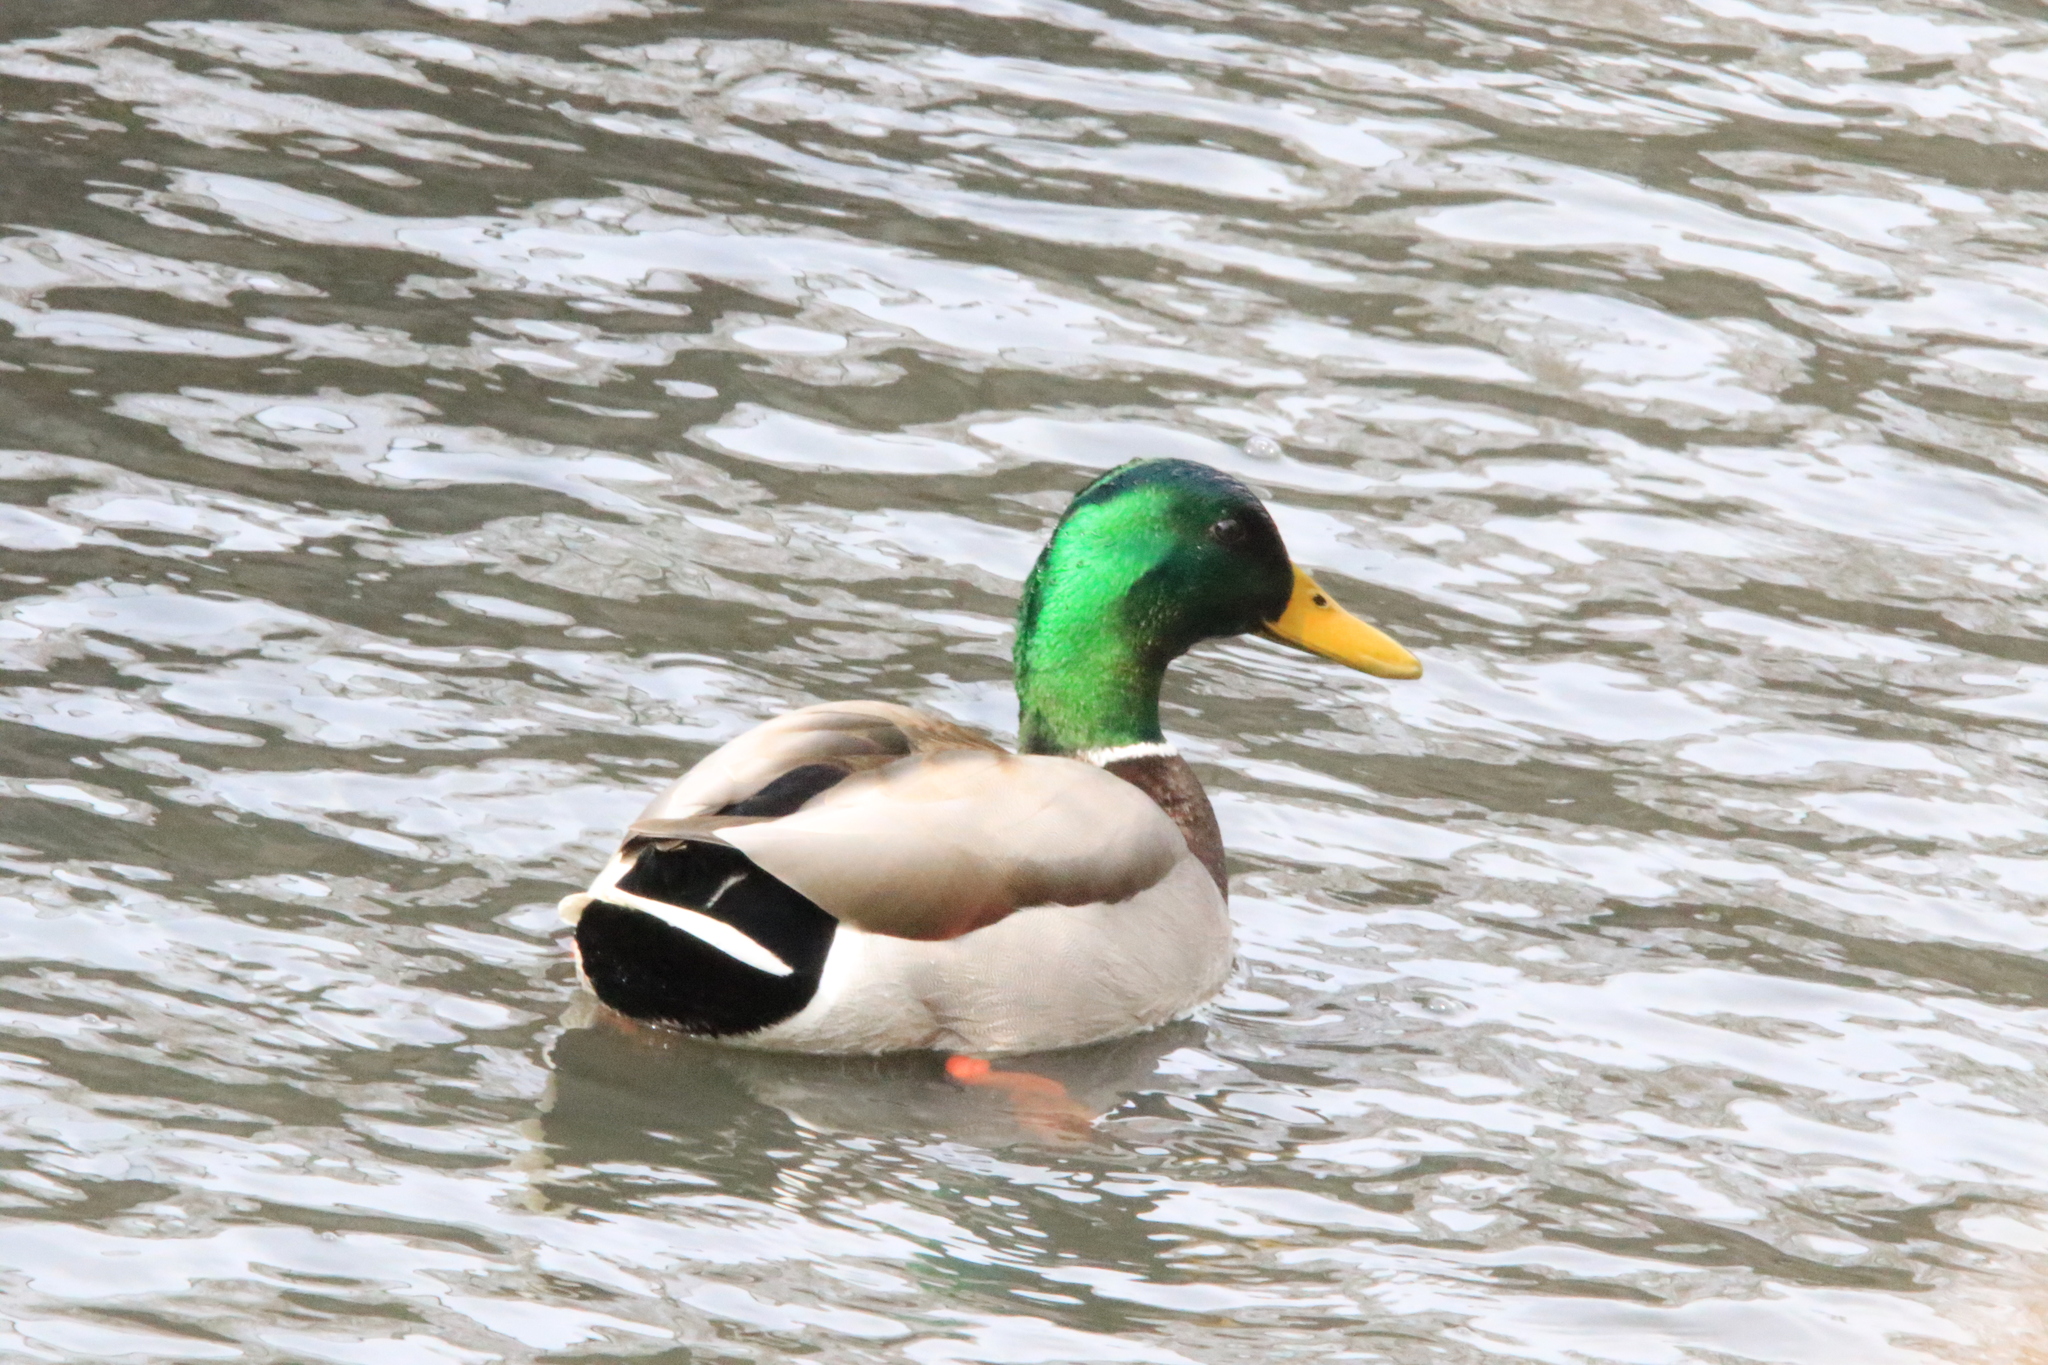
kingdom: Animalia
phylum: Chordata
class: Aves
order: Anseriformes
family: Anatidae
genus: Anas
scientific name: Anas platyrhynchos
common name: Mallard
